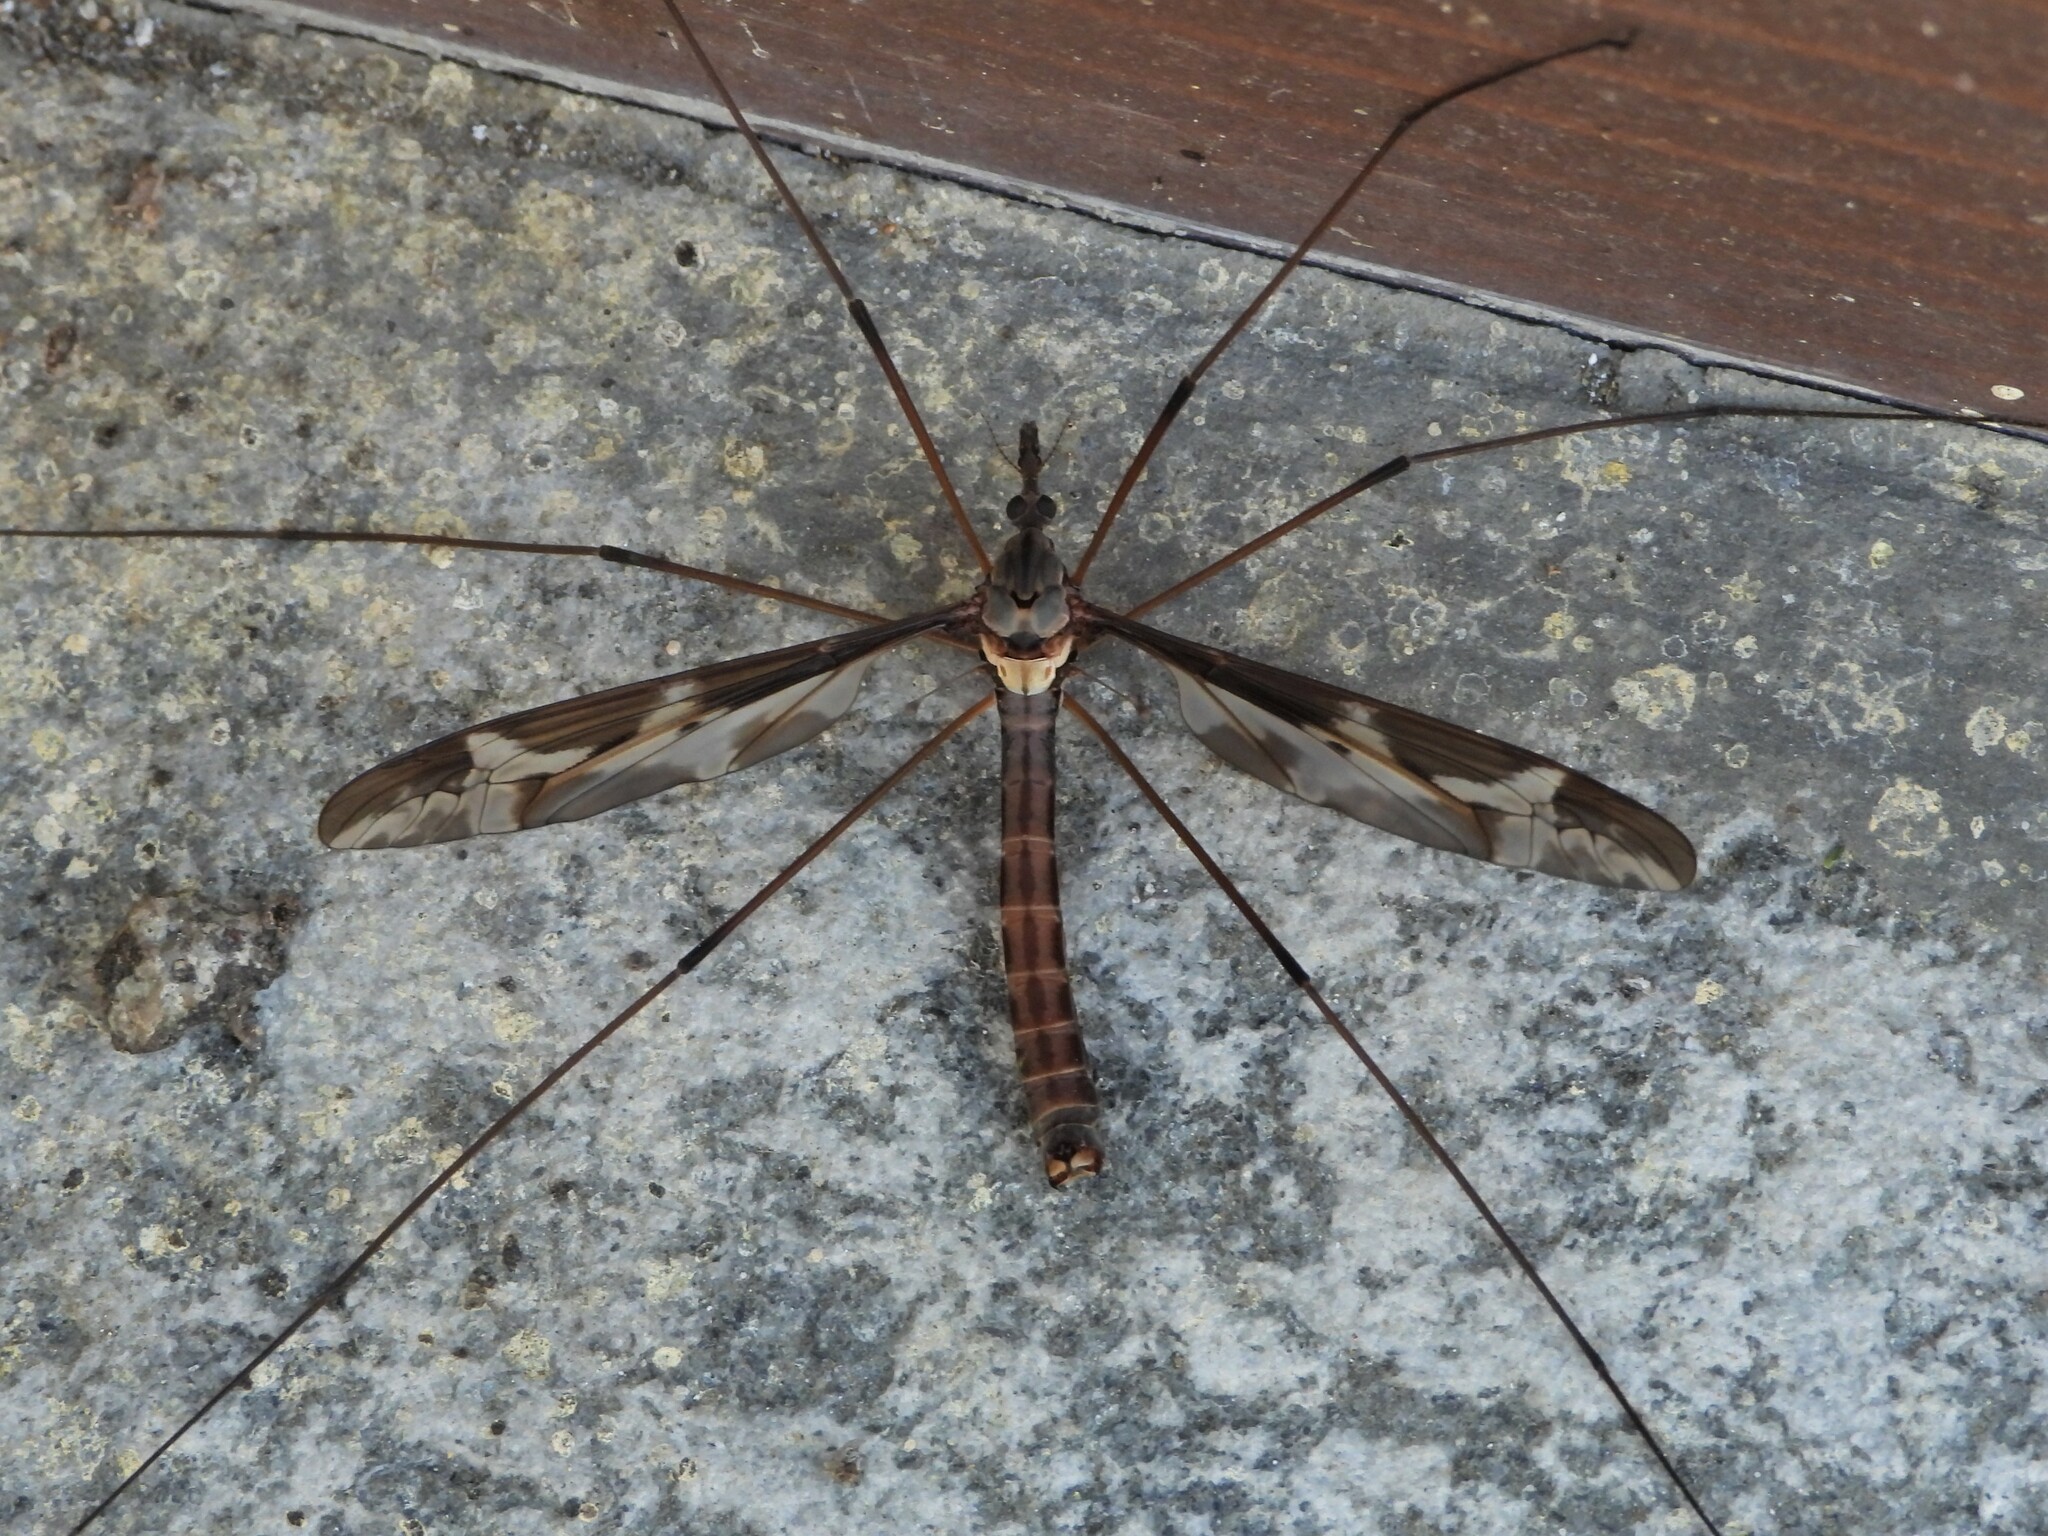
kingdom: Animalia
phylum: Arthropoda
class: Insecta
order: Diptera
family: Tipulidae
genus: Tipula
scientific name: Tipula maxima
